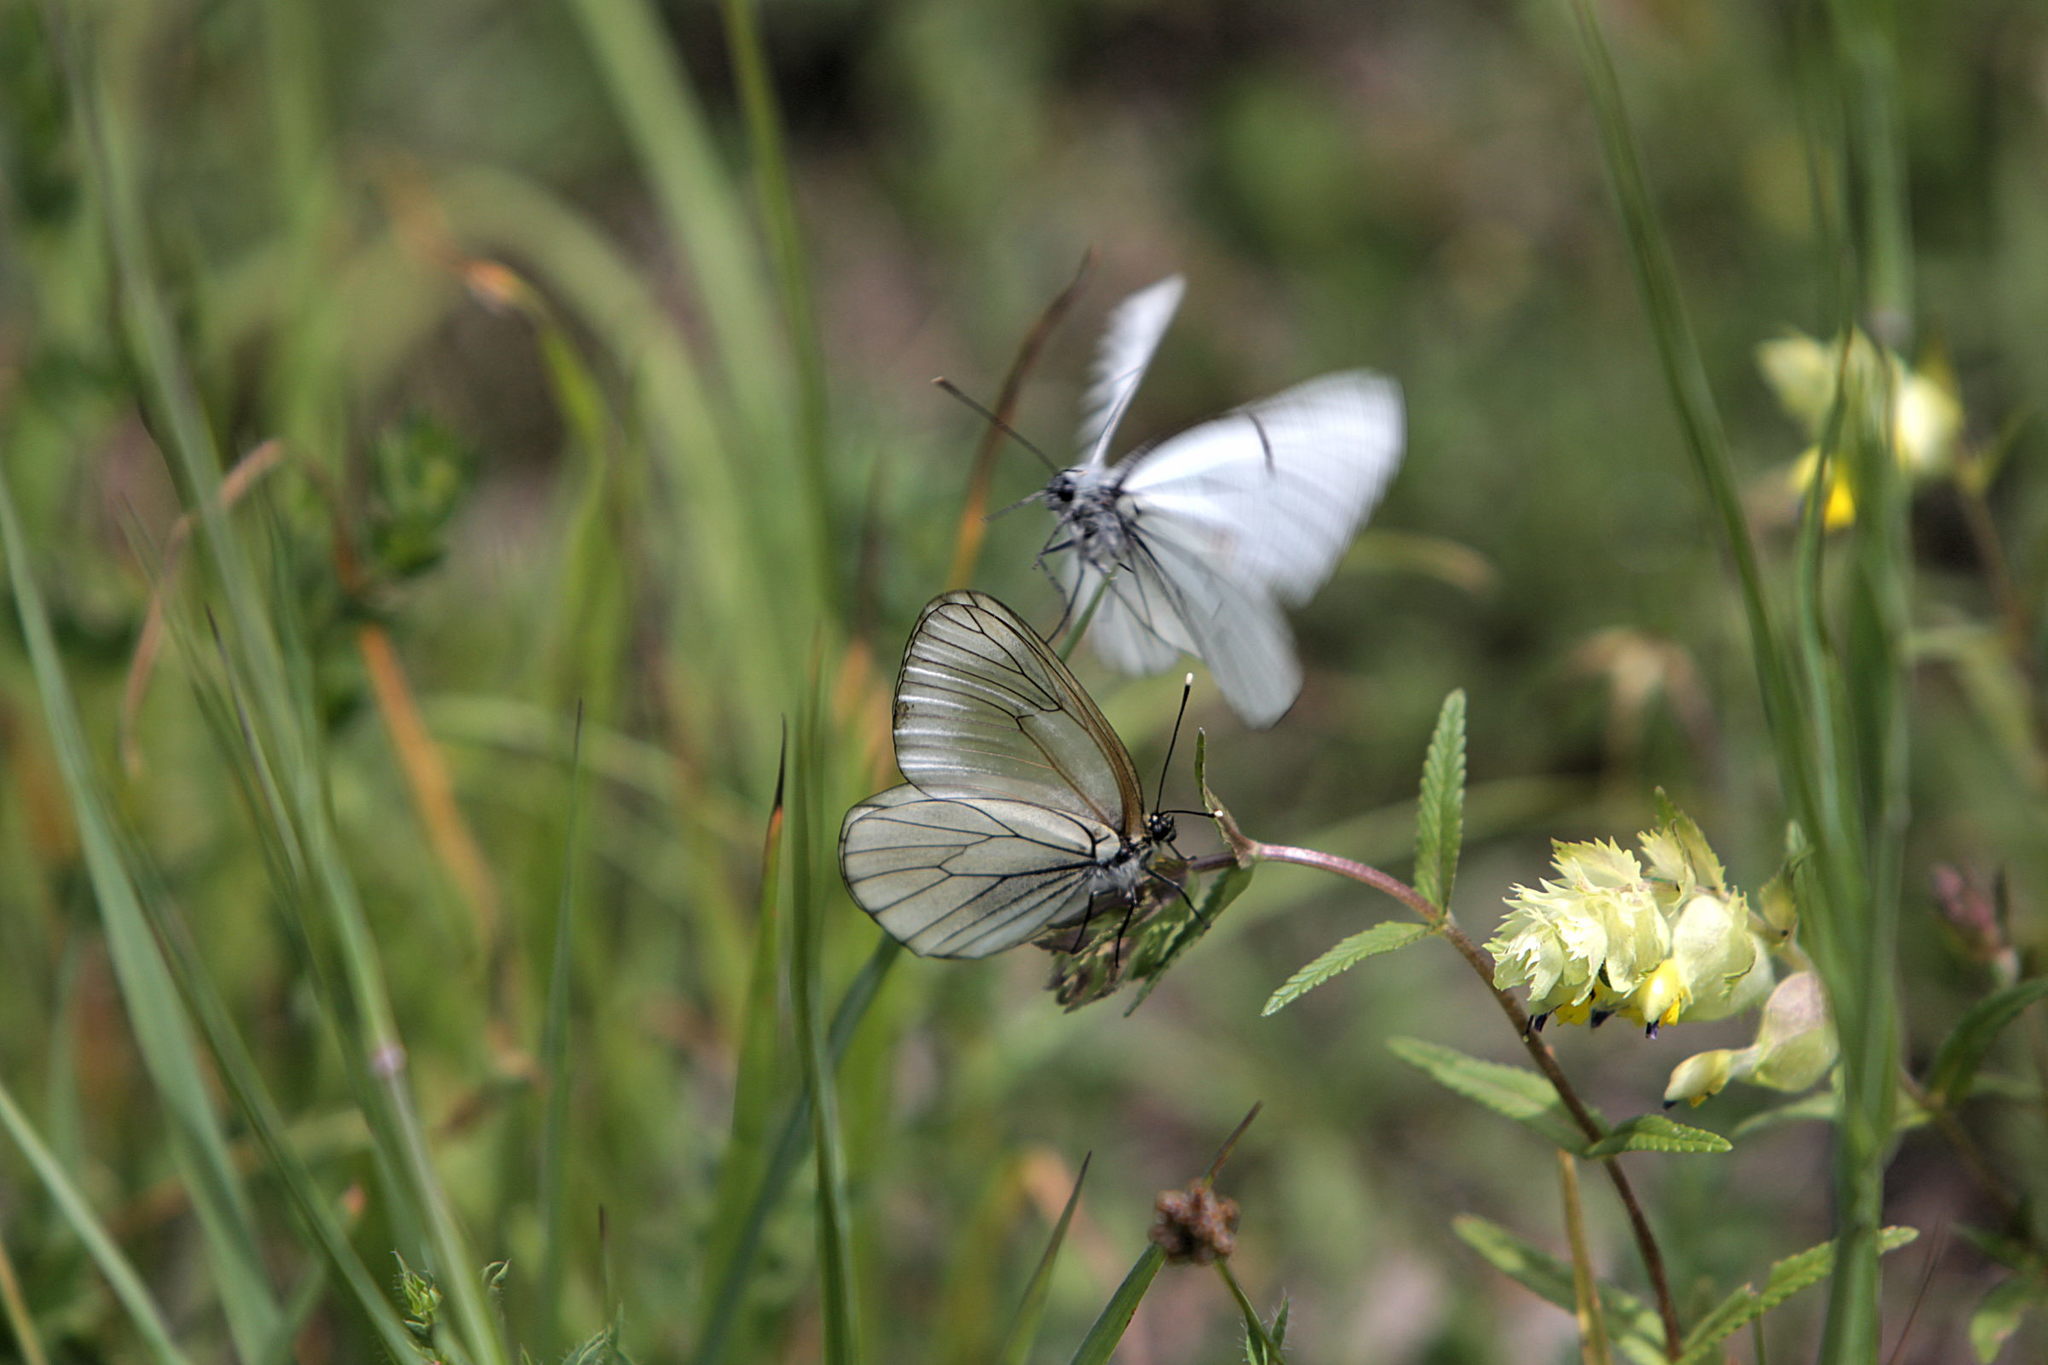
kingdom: Animalia
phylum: Arthropoda
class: Insecta
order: Lepidoptera
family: Pieridae
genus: Aporia
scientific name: Aporia crataegi
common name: Black-veined white
